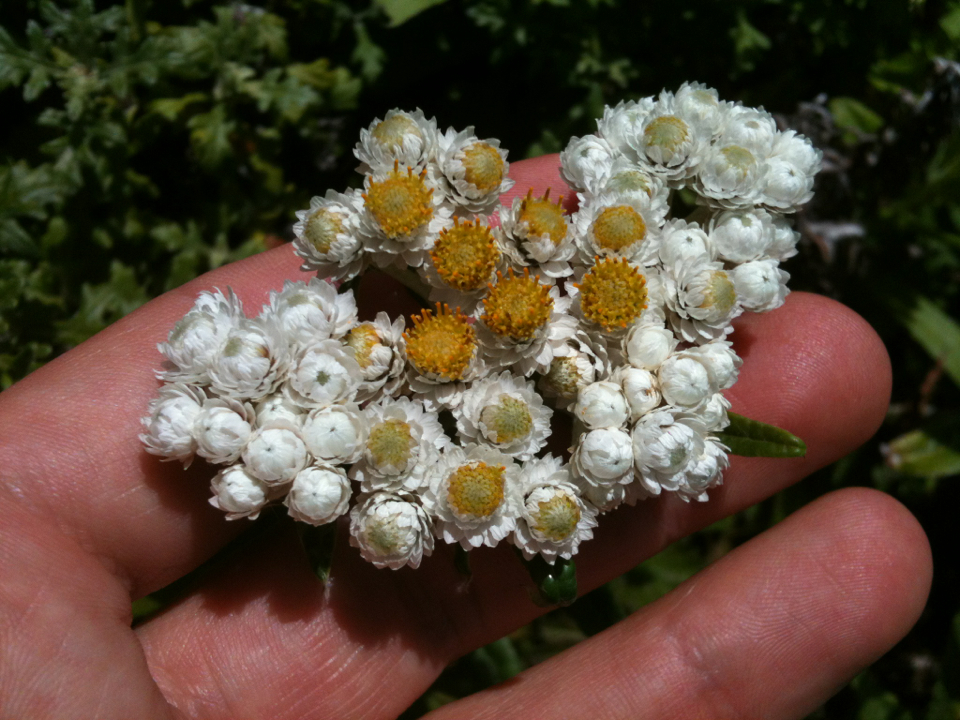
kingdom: Plantae
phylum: Tracheophyta
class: Magnoliopsida
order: Asterales
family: Asteraceae
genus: Anaphalis
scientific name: Anaphalis margaritacea
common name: Pearly everlasting
